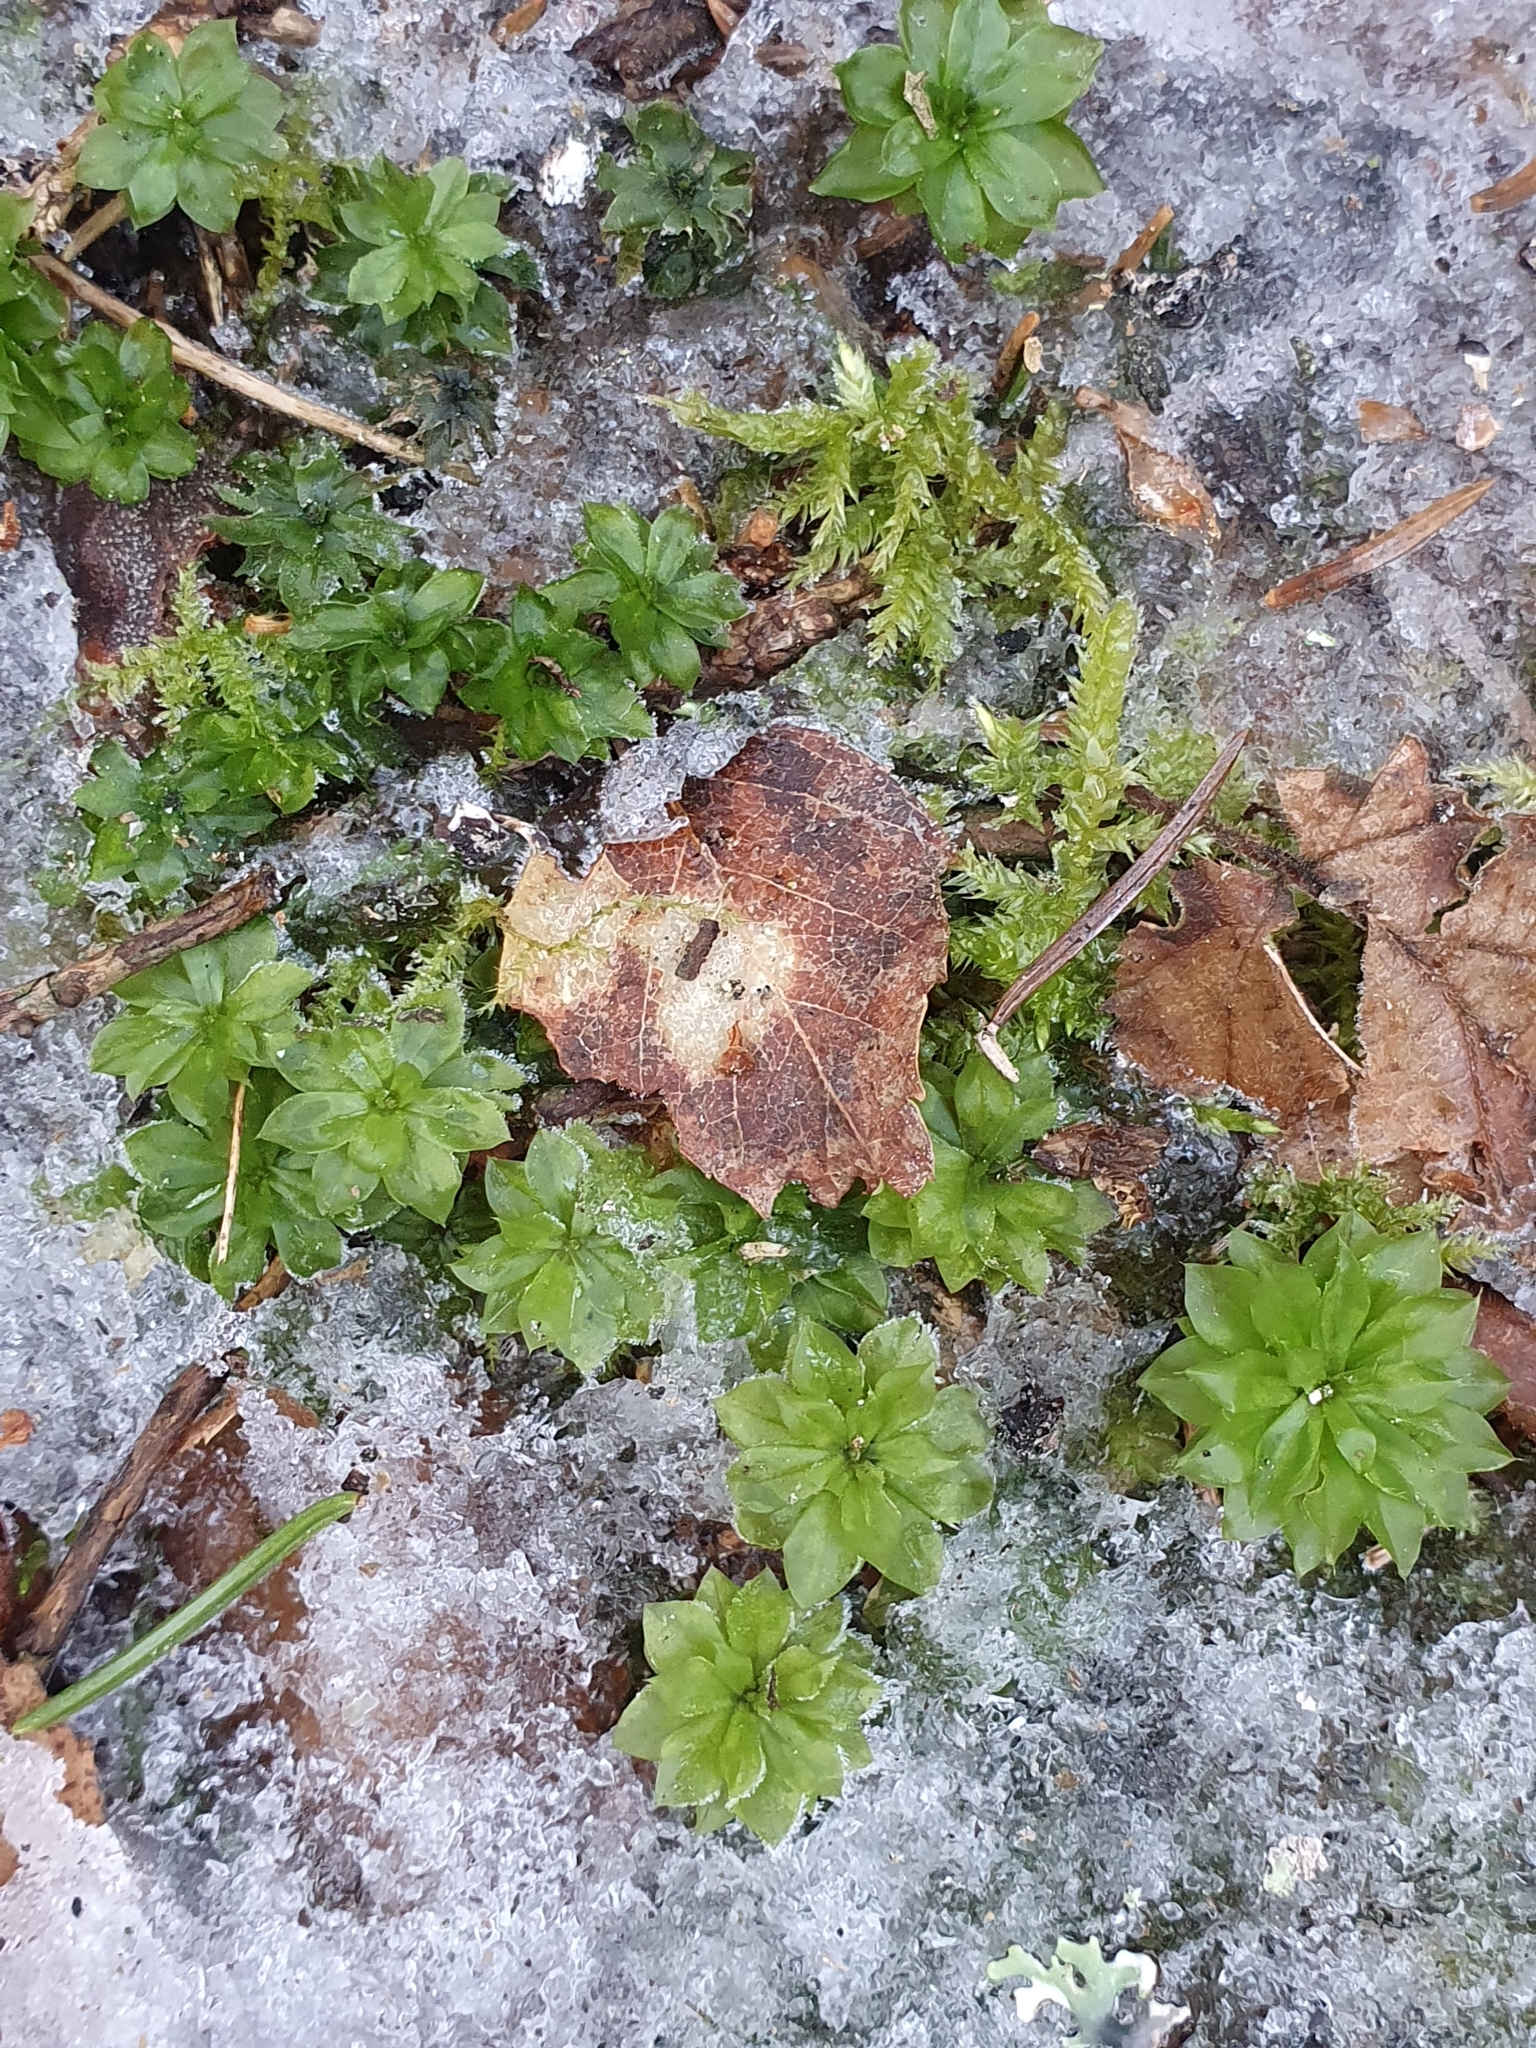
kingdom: Plantae
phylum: Bryophyta
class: Bryopsida
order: Bryales
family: Bryaceae
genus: Rhodobryum
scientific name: Rhodobryum roseum
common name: Rose-moss
